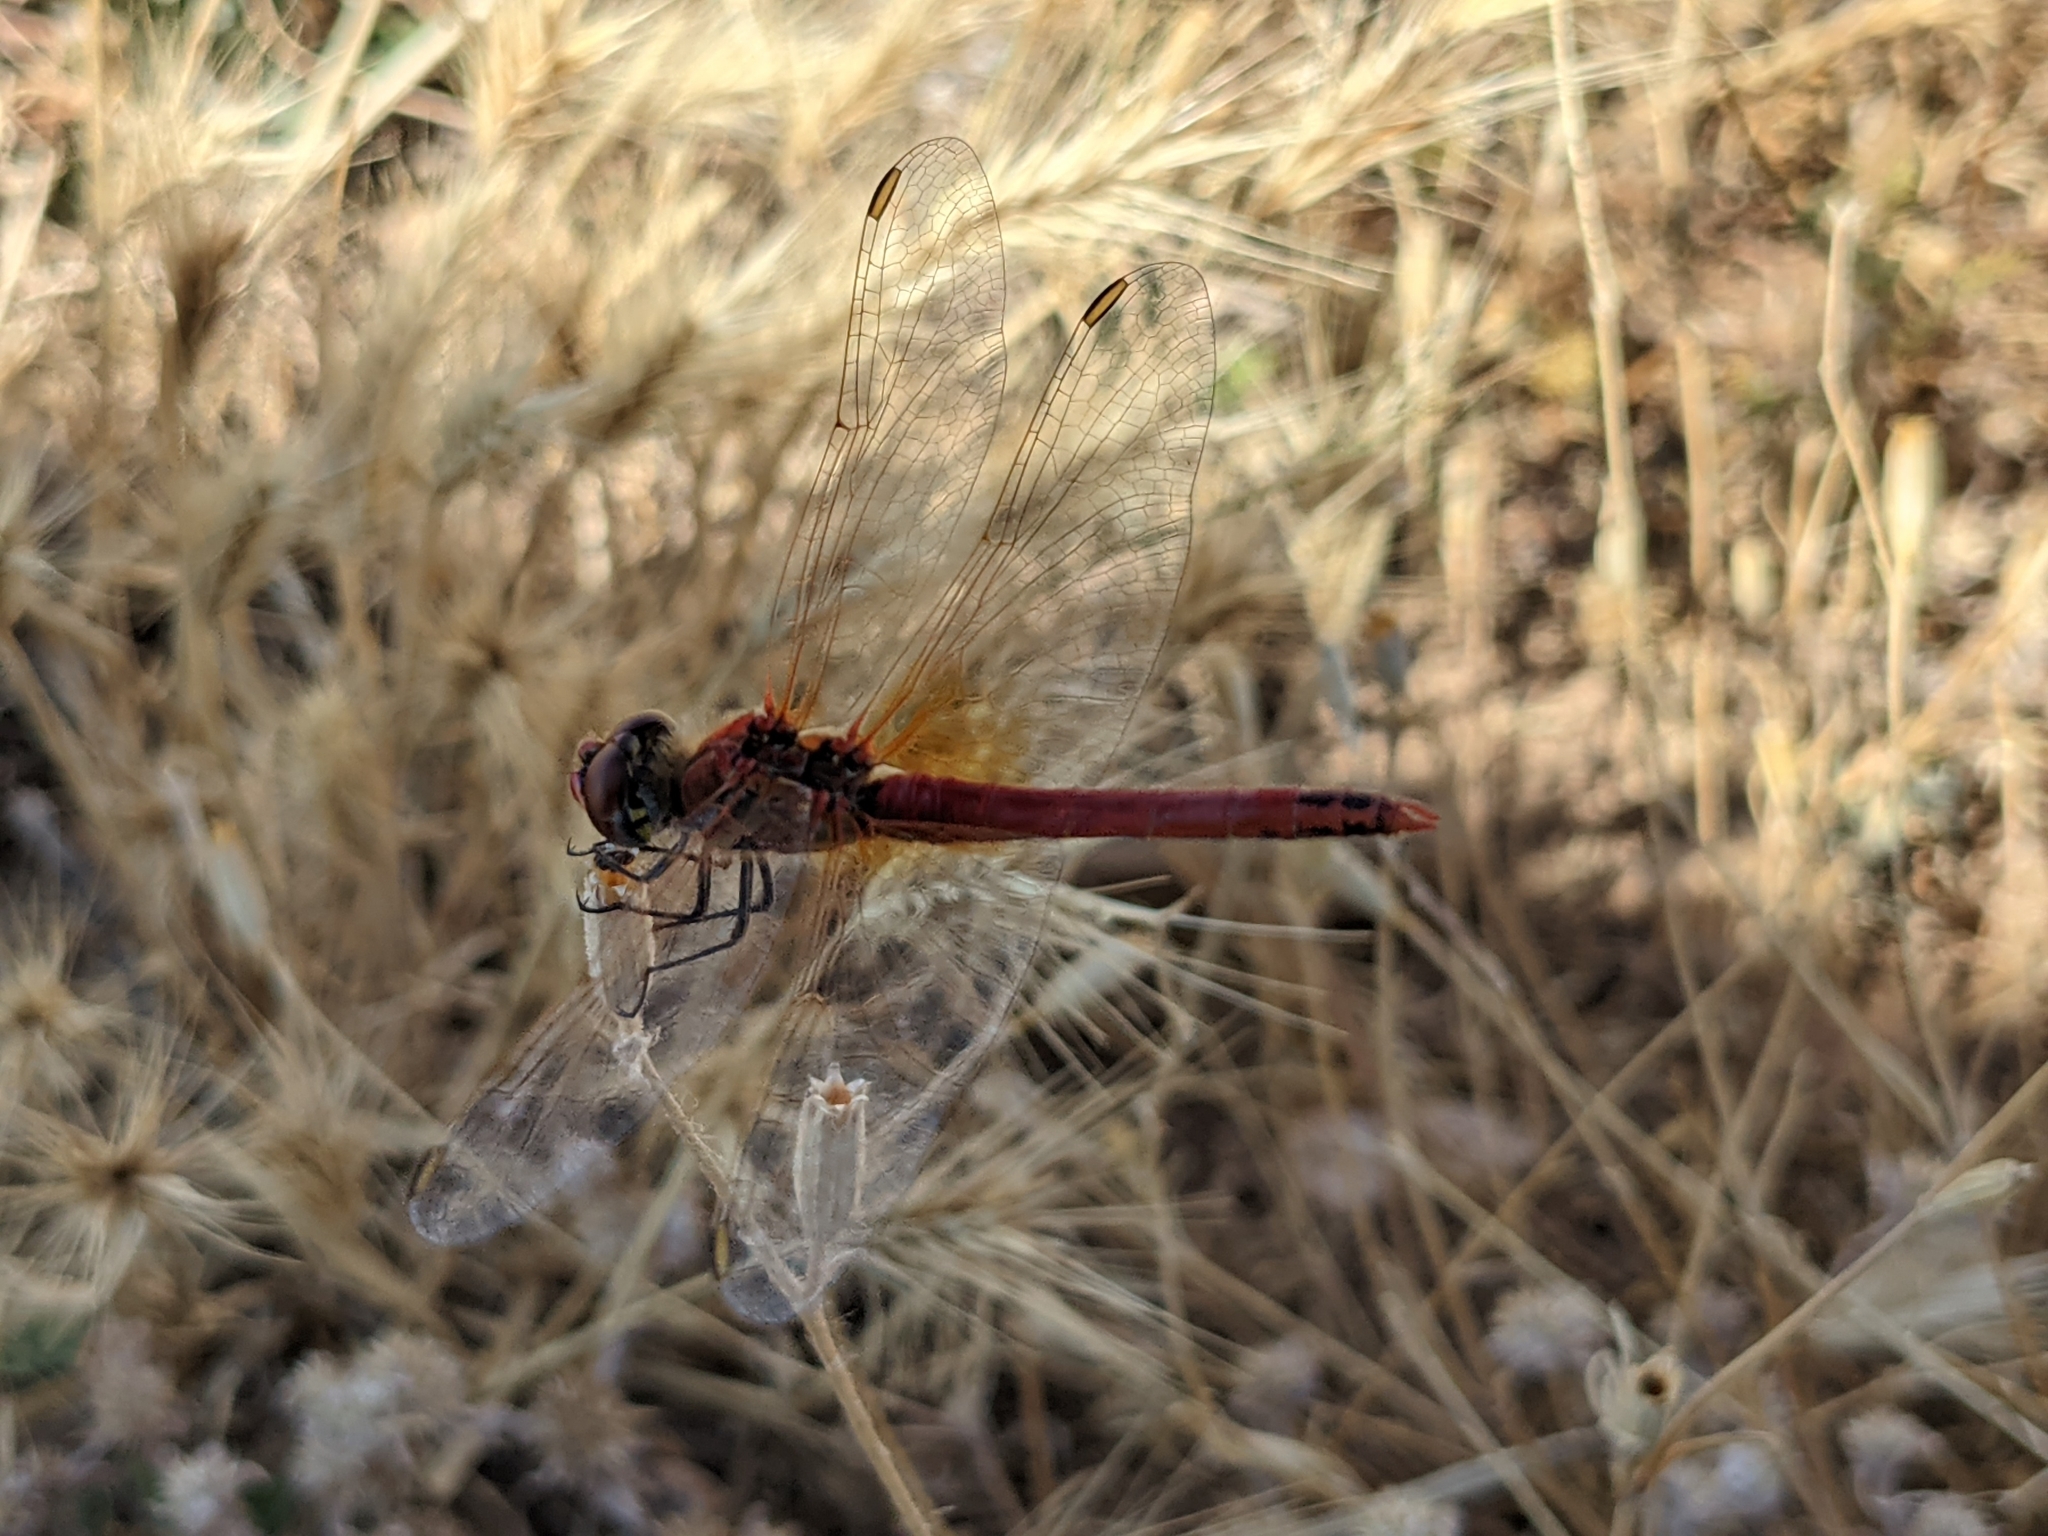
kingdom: Animalia
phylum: Arthropoda
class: Insecta
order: Odonata
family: Libellulidae
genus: Sympetrum
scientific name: Sympetrum fonscolombii
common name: Red-veined darter
